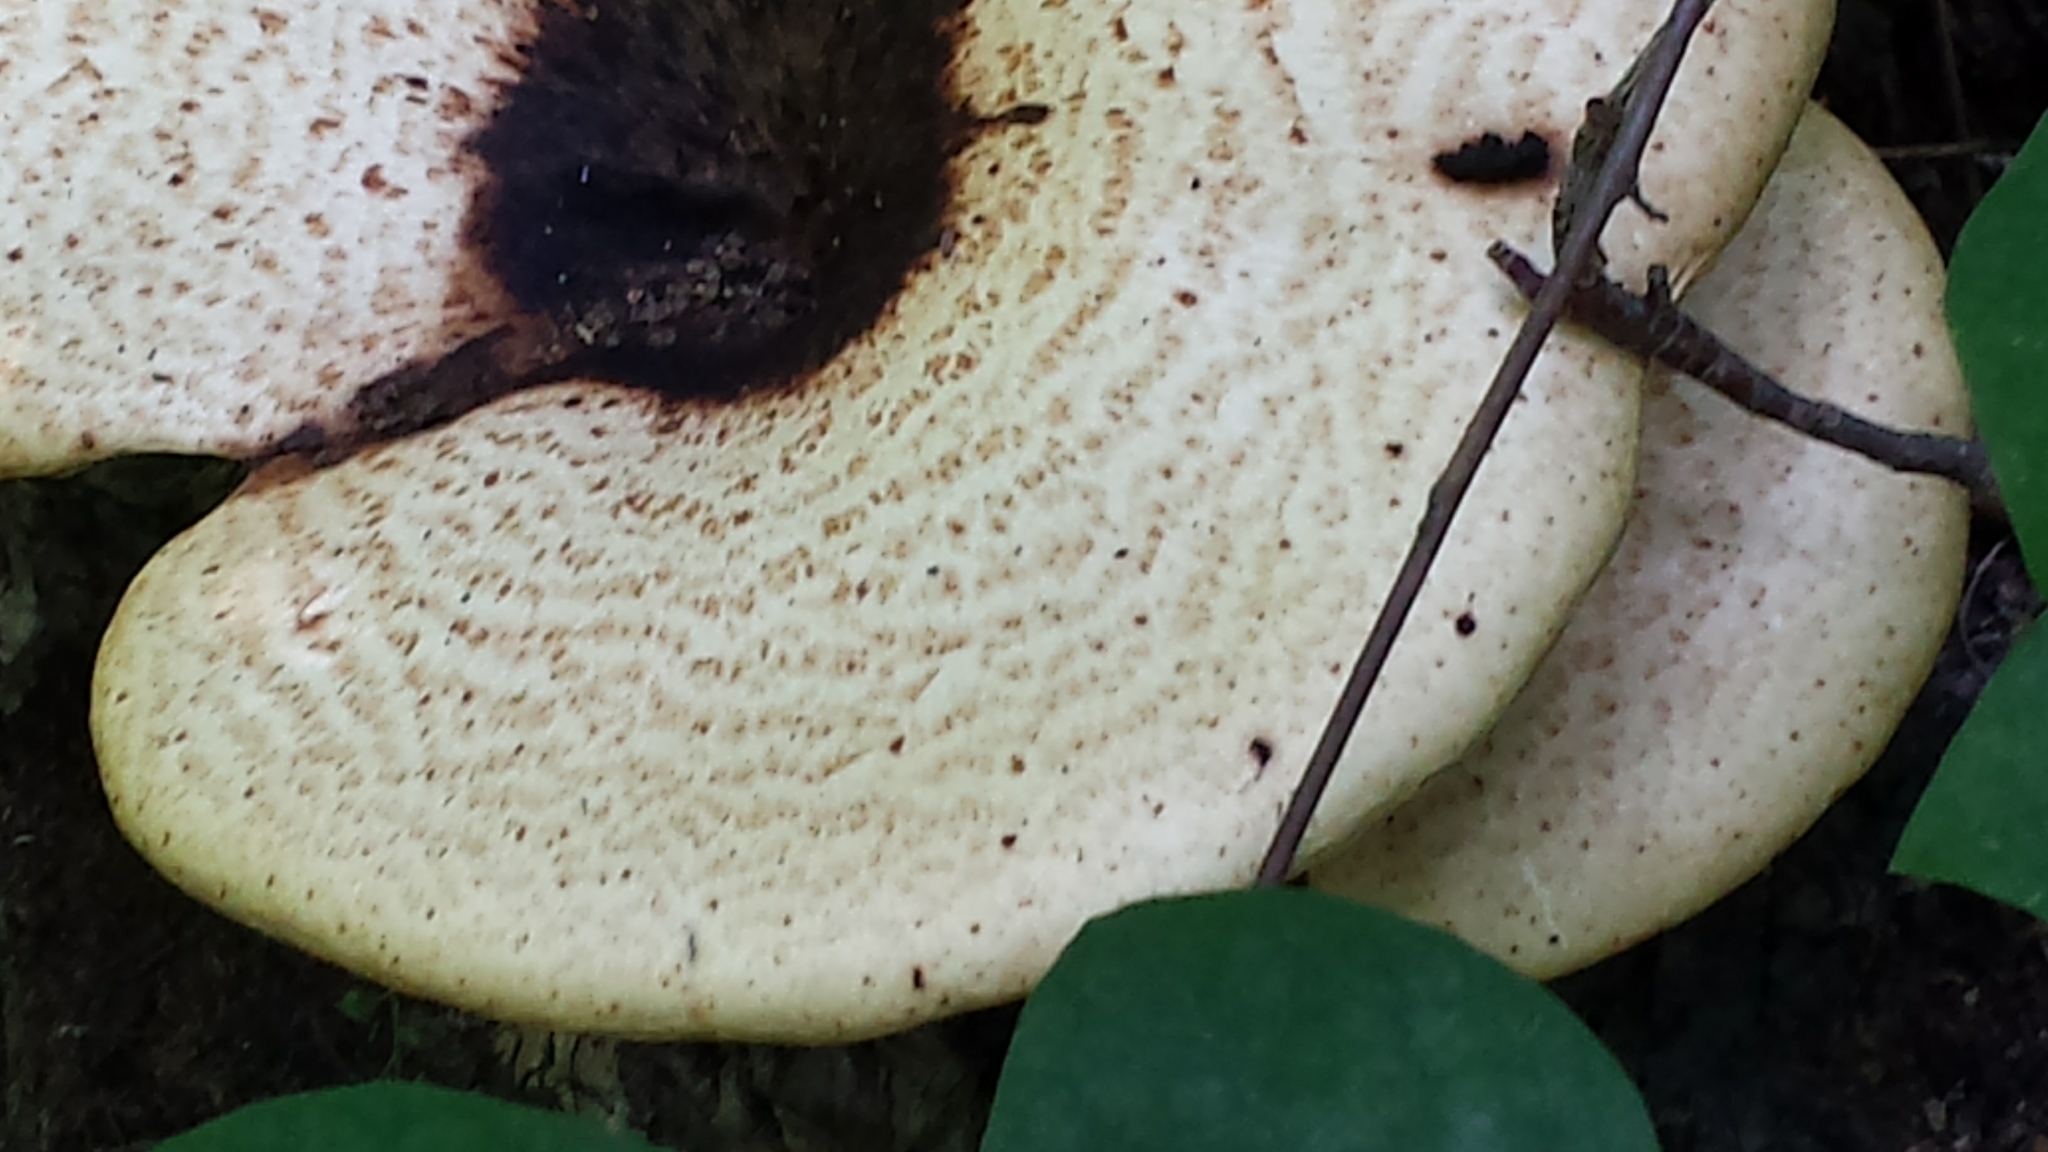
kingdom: Fungi
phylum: Basidiomycota
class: Agaricomycetes
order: Polyporales
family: Polyporaceae
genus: Cerioporus
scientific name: Cerioporus squamosus
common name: Dryad's saddle
